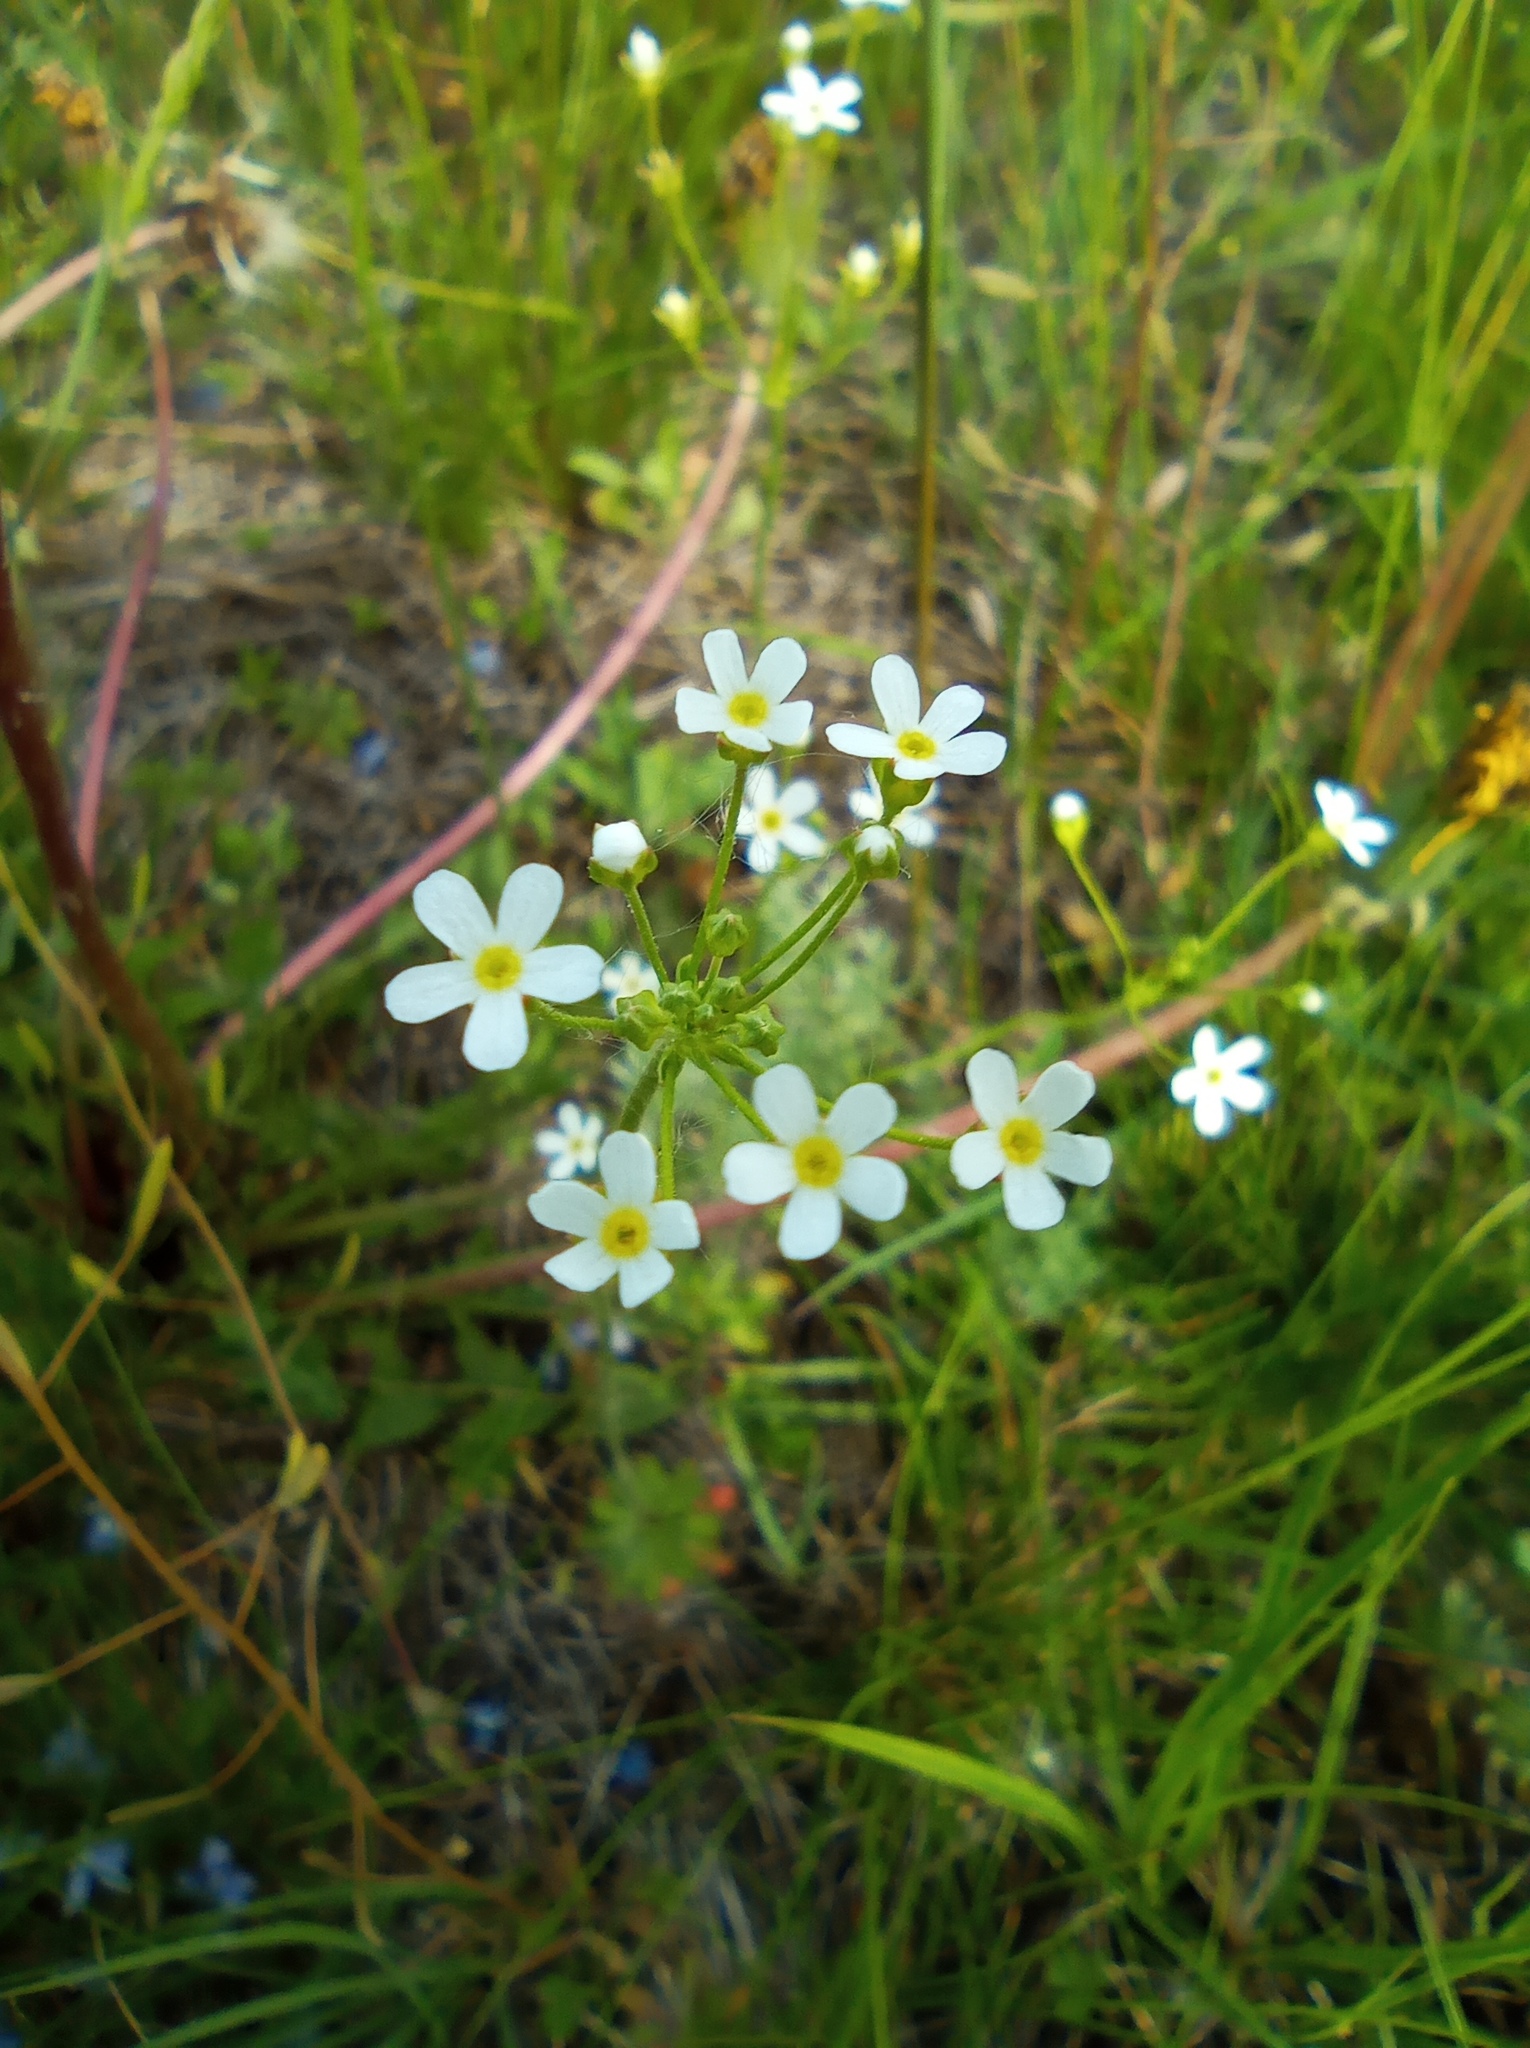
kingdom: Plantae
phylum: Tracheophyta
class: Magnoliopsida
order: Ericales
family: Primulaceae
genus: Androsace
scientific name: Androsace septentrionalis
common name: Hairy northern fairy-candelabra
